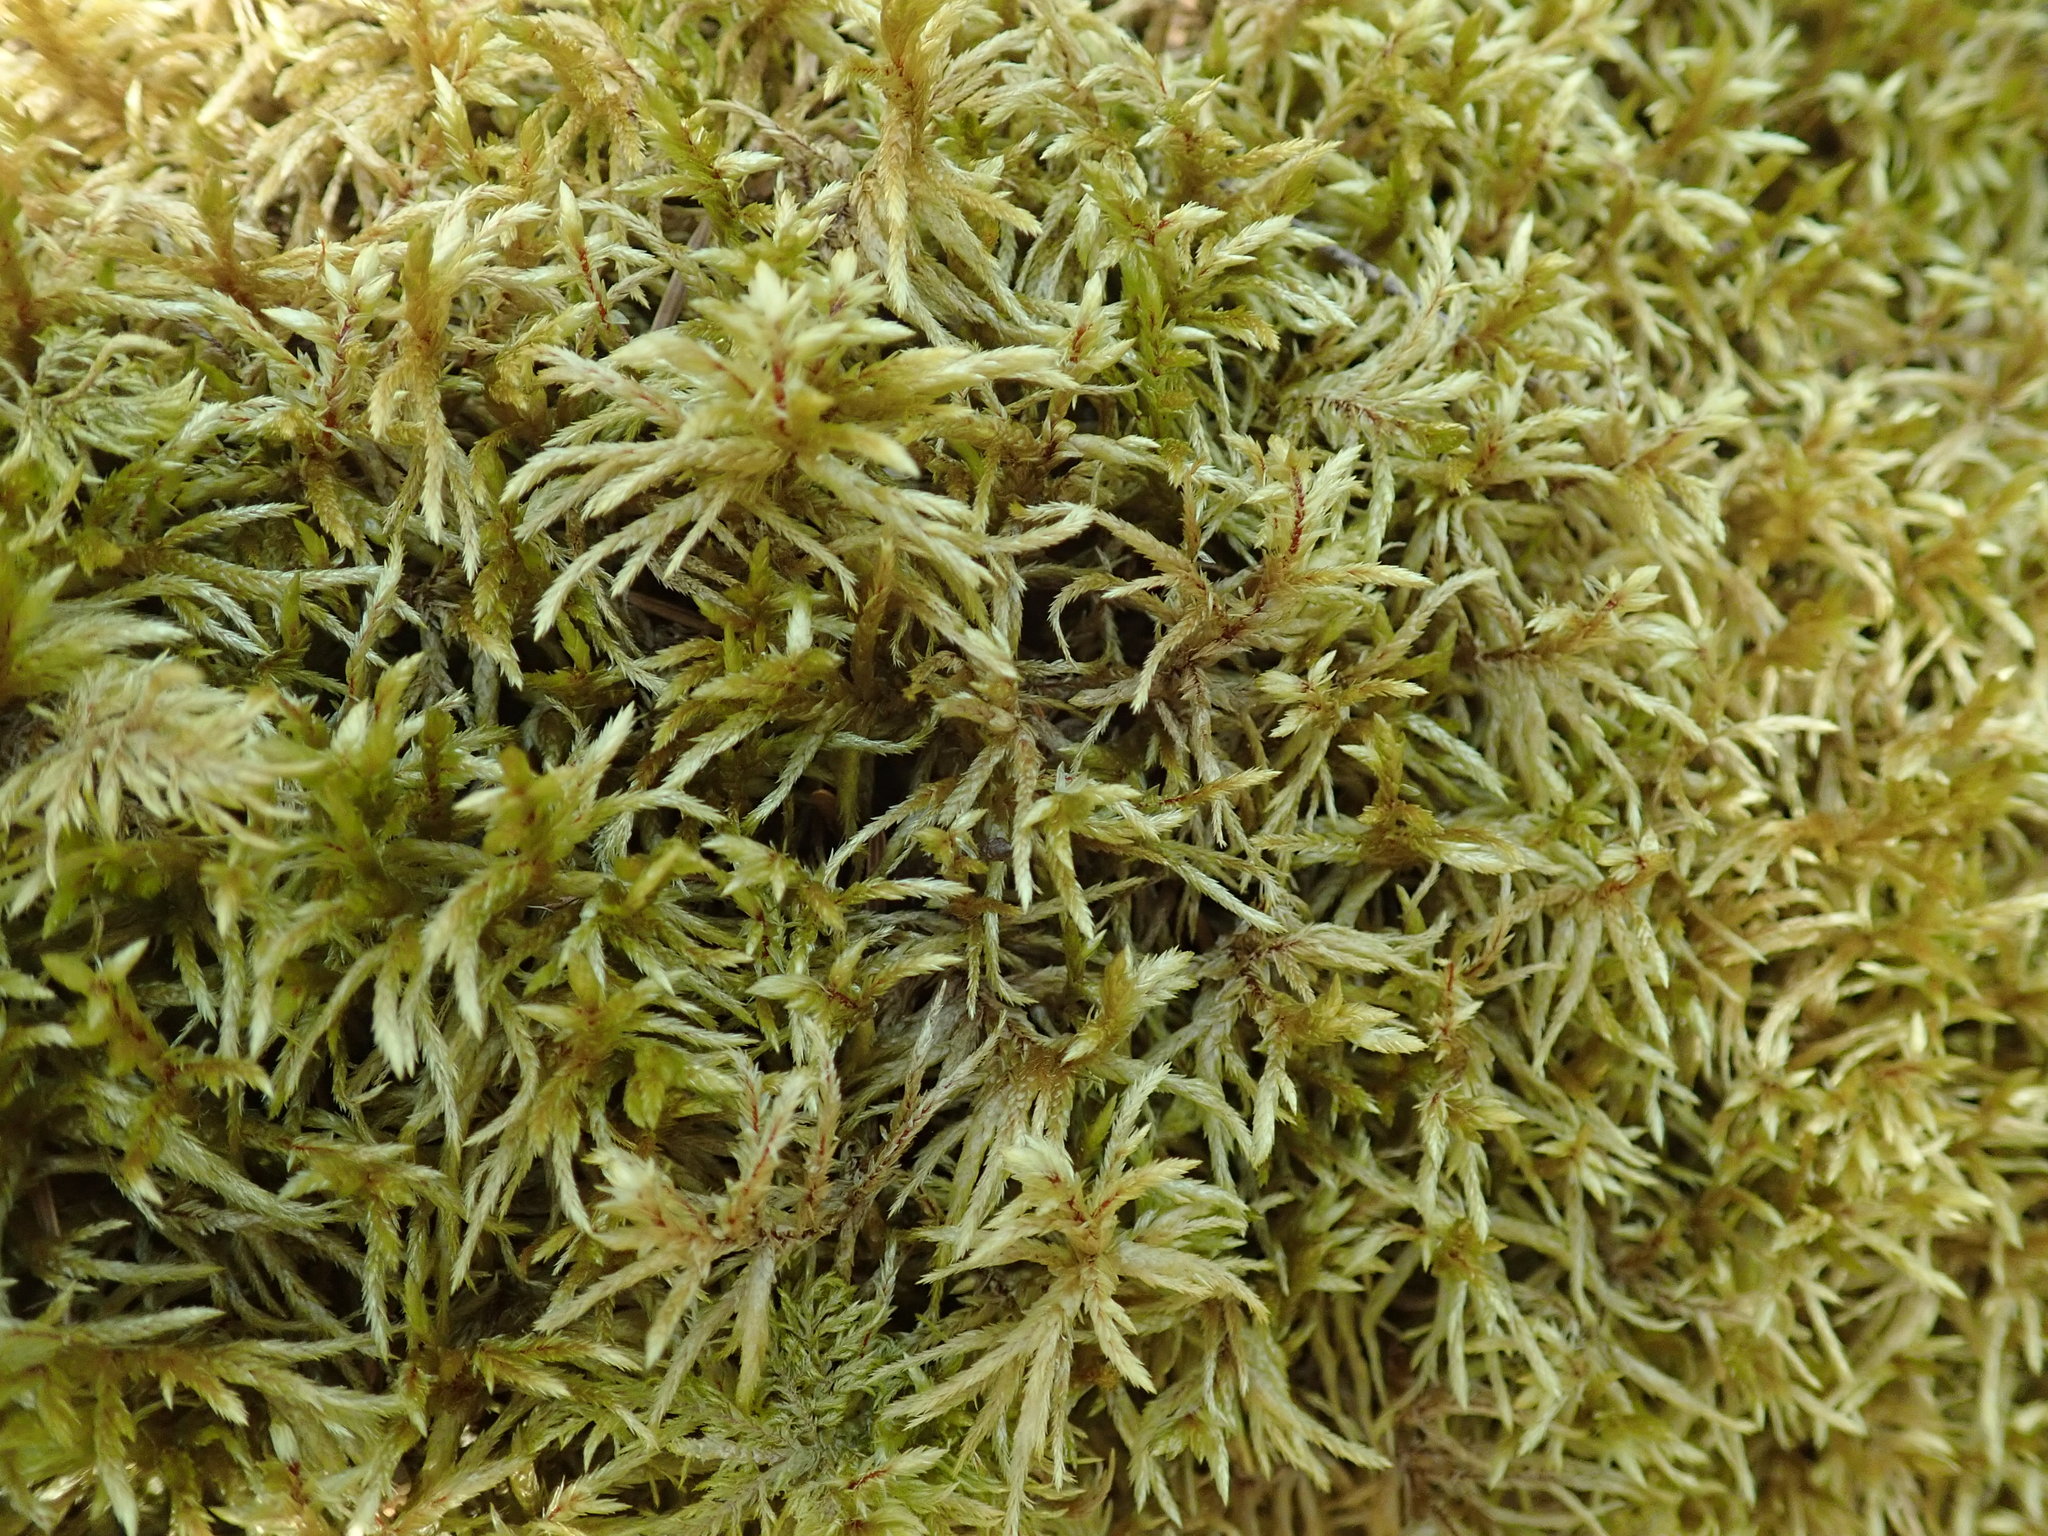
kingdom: Plantae
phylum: Bryophyta
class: Bryopsida
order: Hypnales
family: Hylocomiaceae
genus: Pleurozium
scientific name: Pleurozium schreberi
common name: Red-stemmed feather moss
